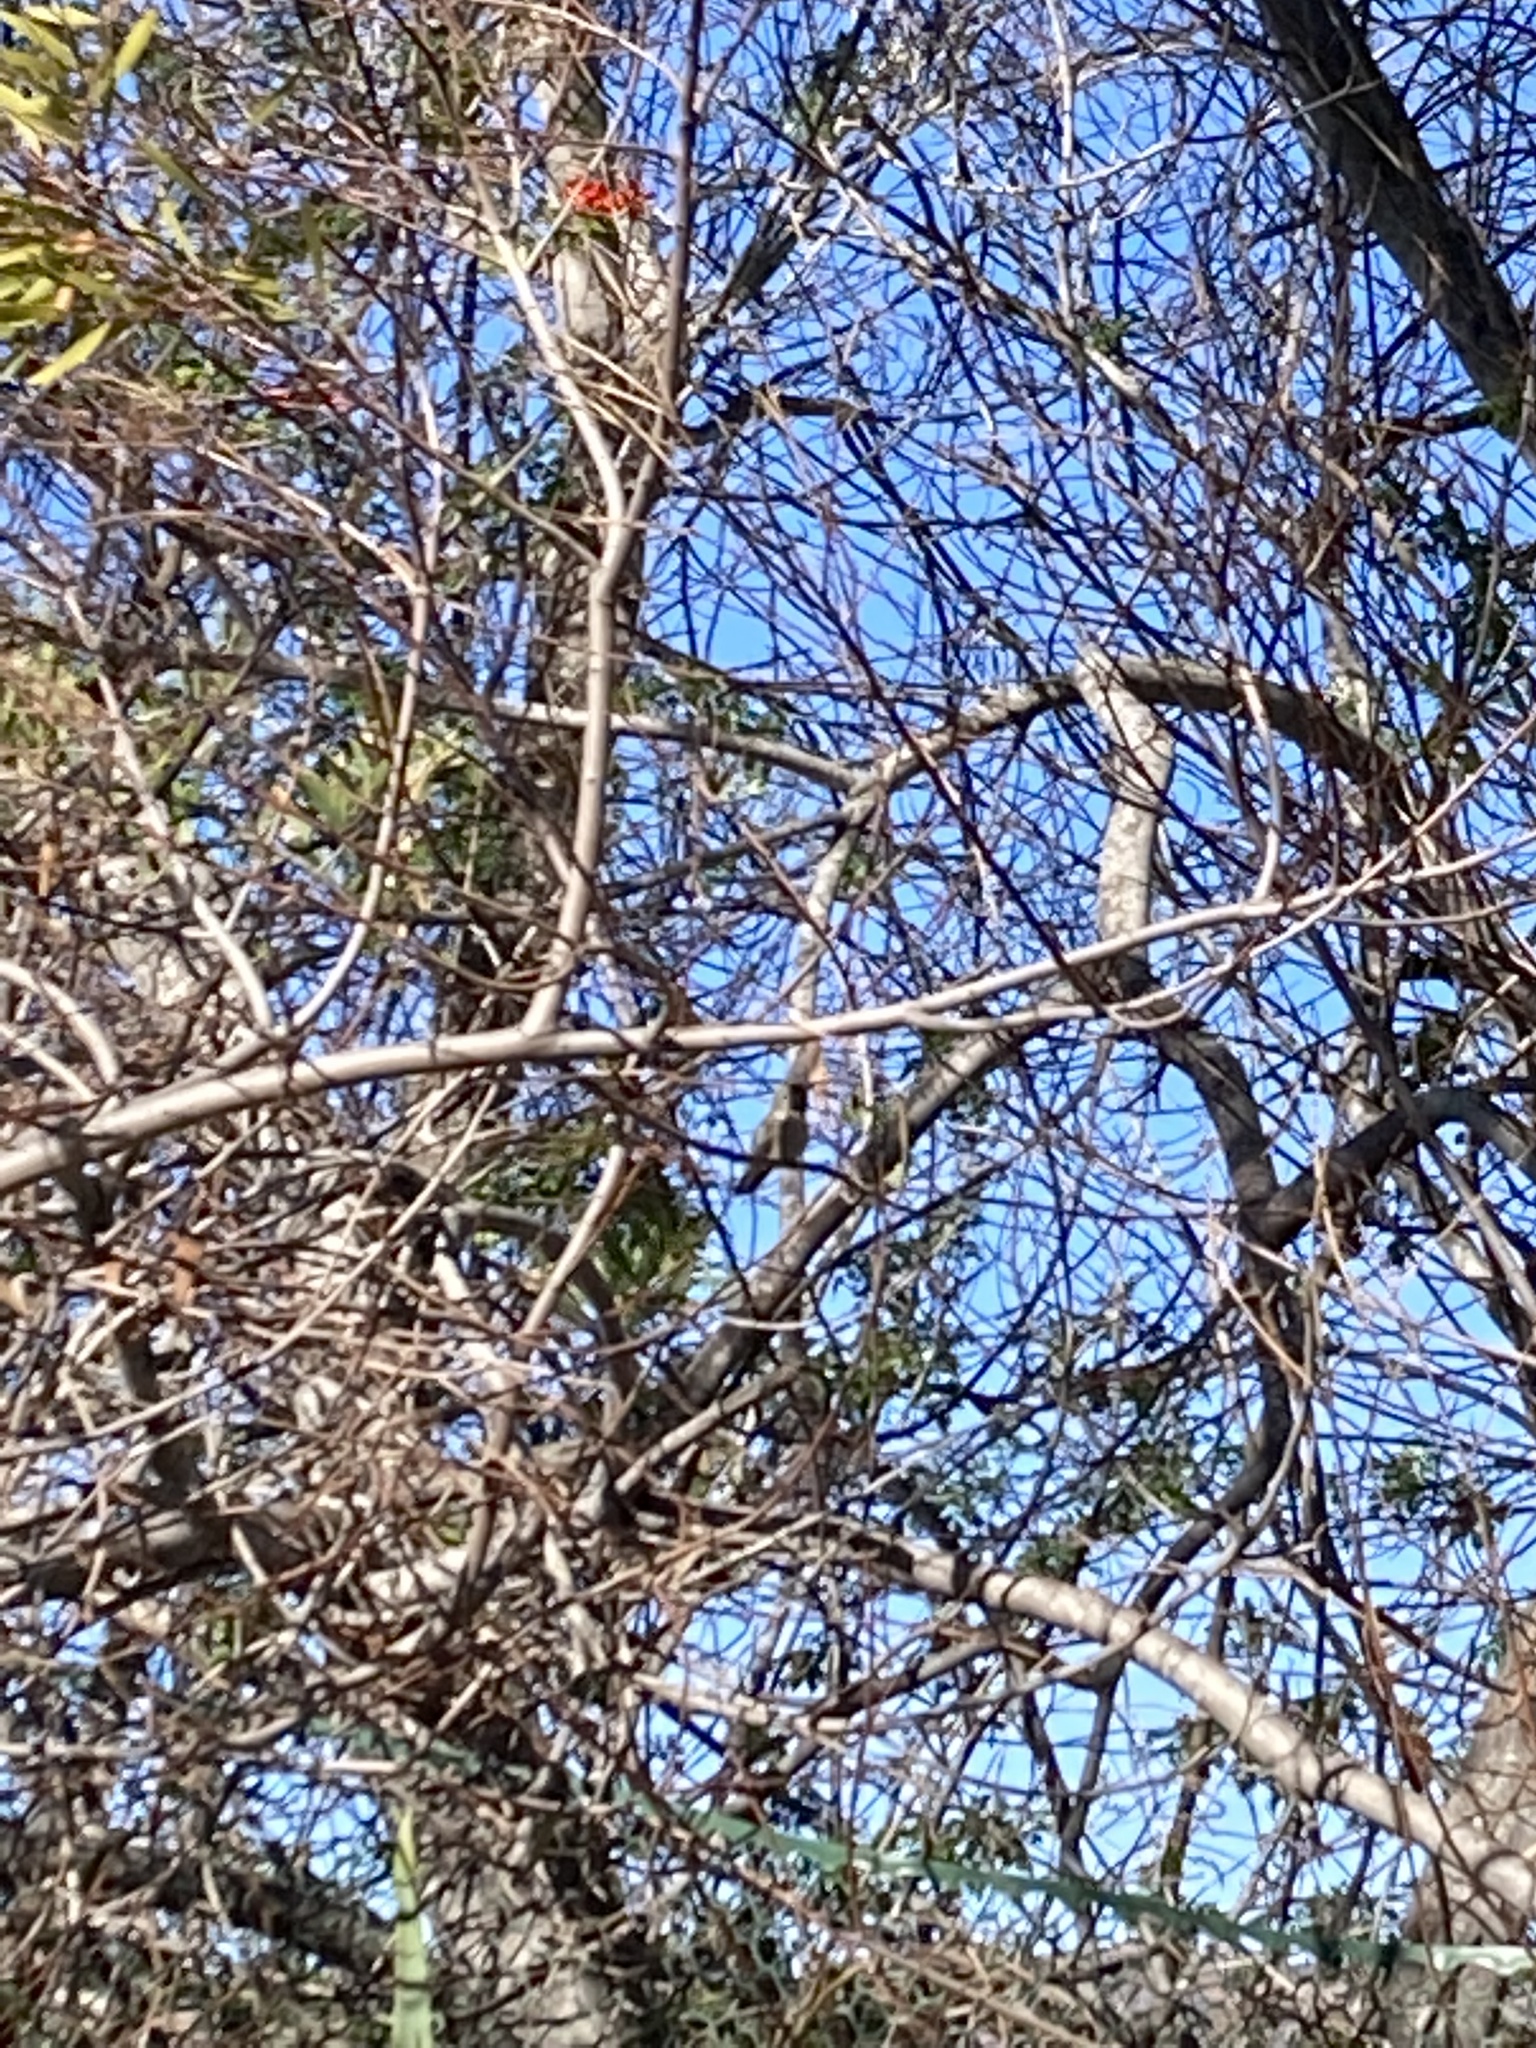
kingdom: Animalia
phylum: Chordata
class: Aves
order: Apodiformes
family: Trochilidae
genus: Calypte
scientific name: Calypte anna
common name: Anna's hummingbird
